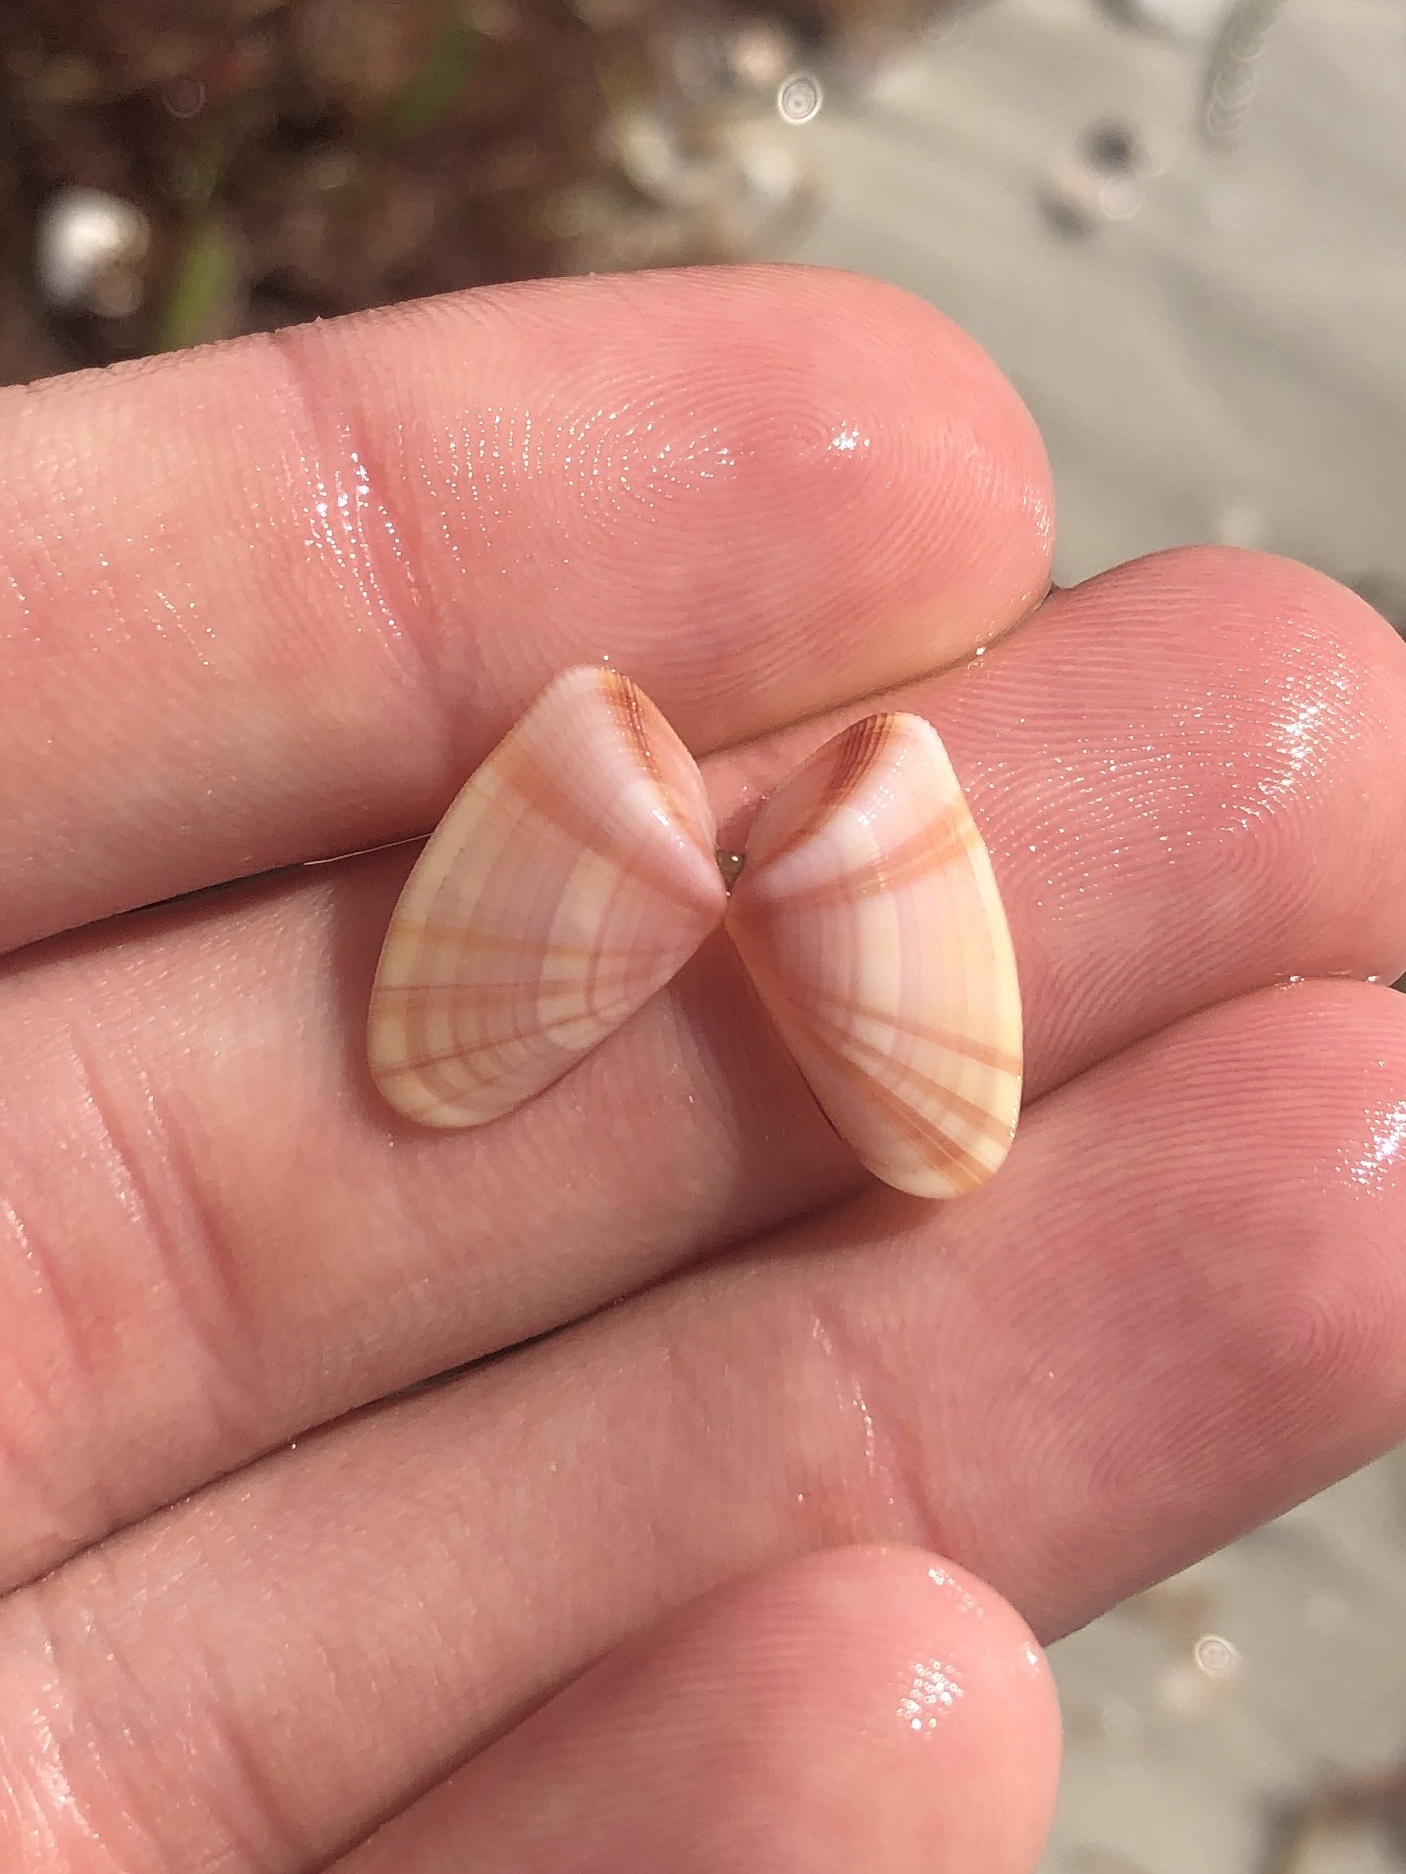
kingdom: Animalia
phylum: Mollusca
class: Bivalvia
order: Cardiida
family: Donacidae
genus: Donax
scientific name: Donax variabilis
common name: Butterfly shell
